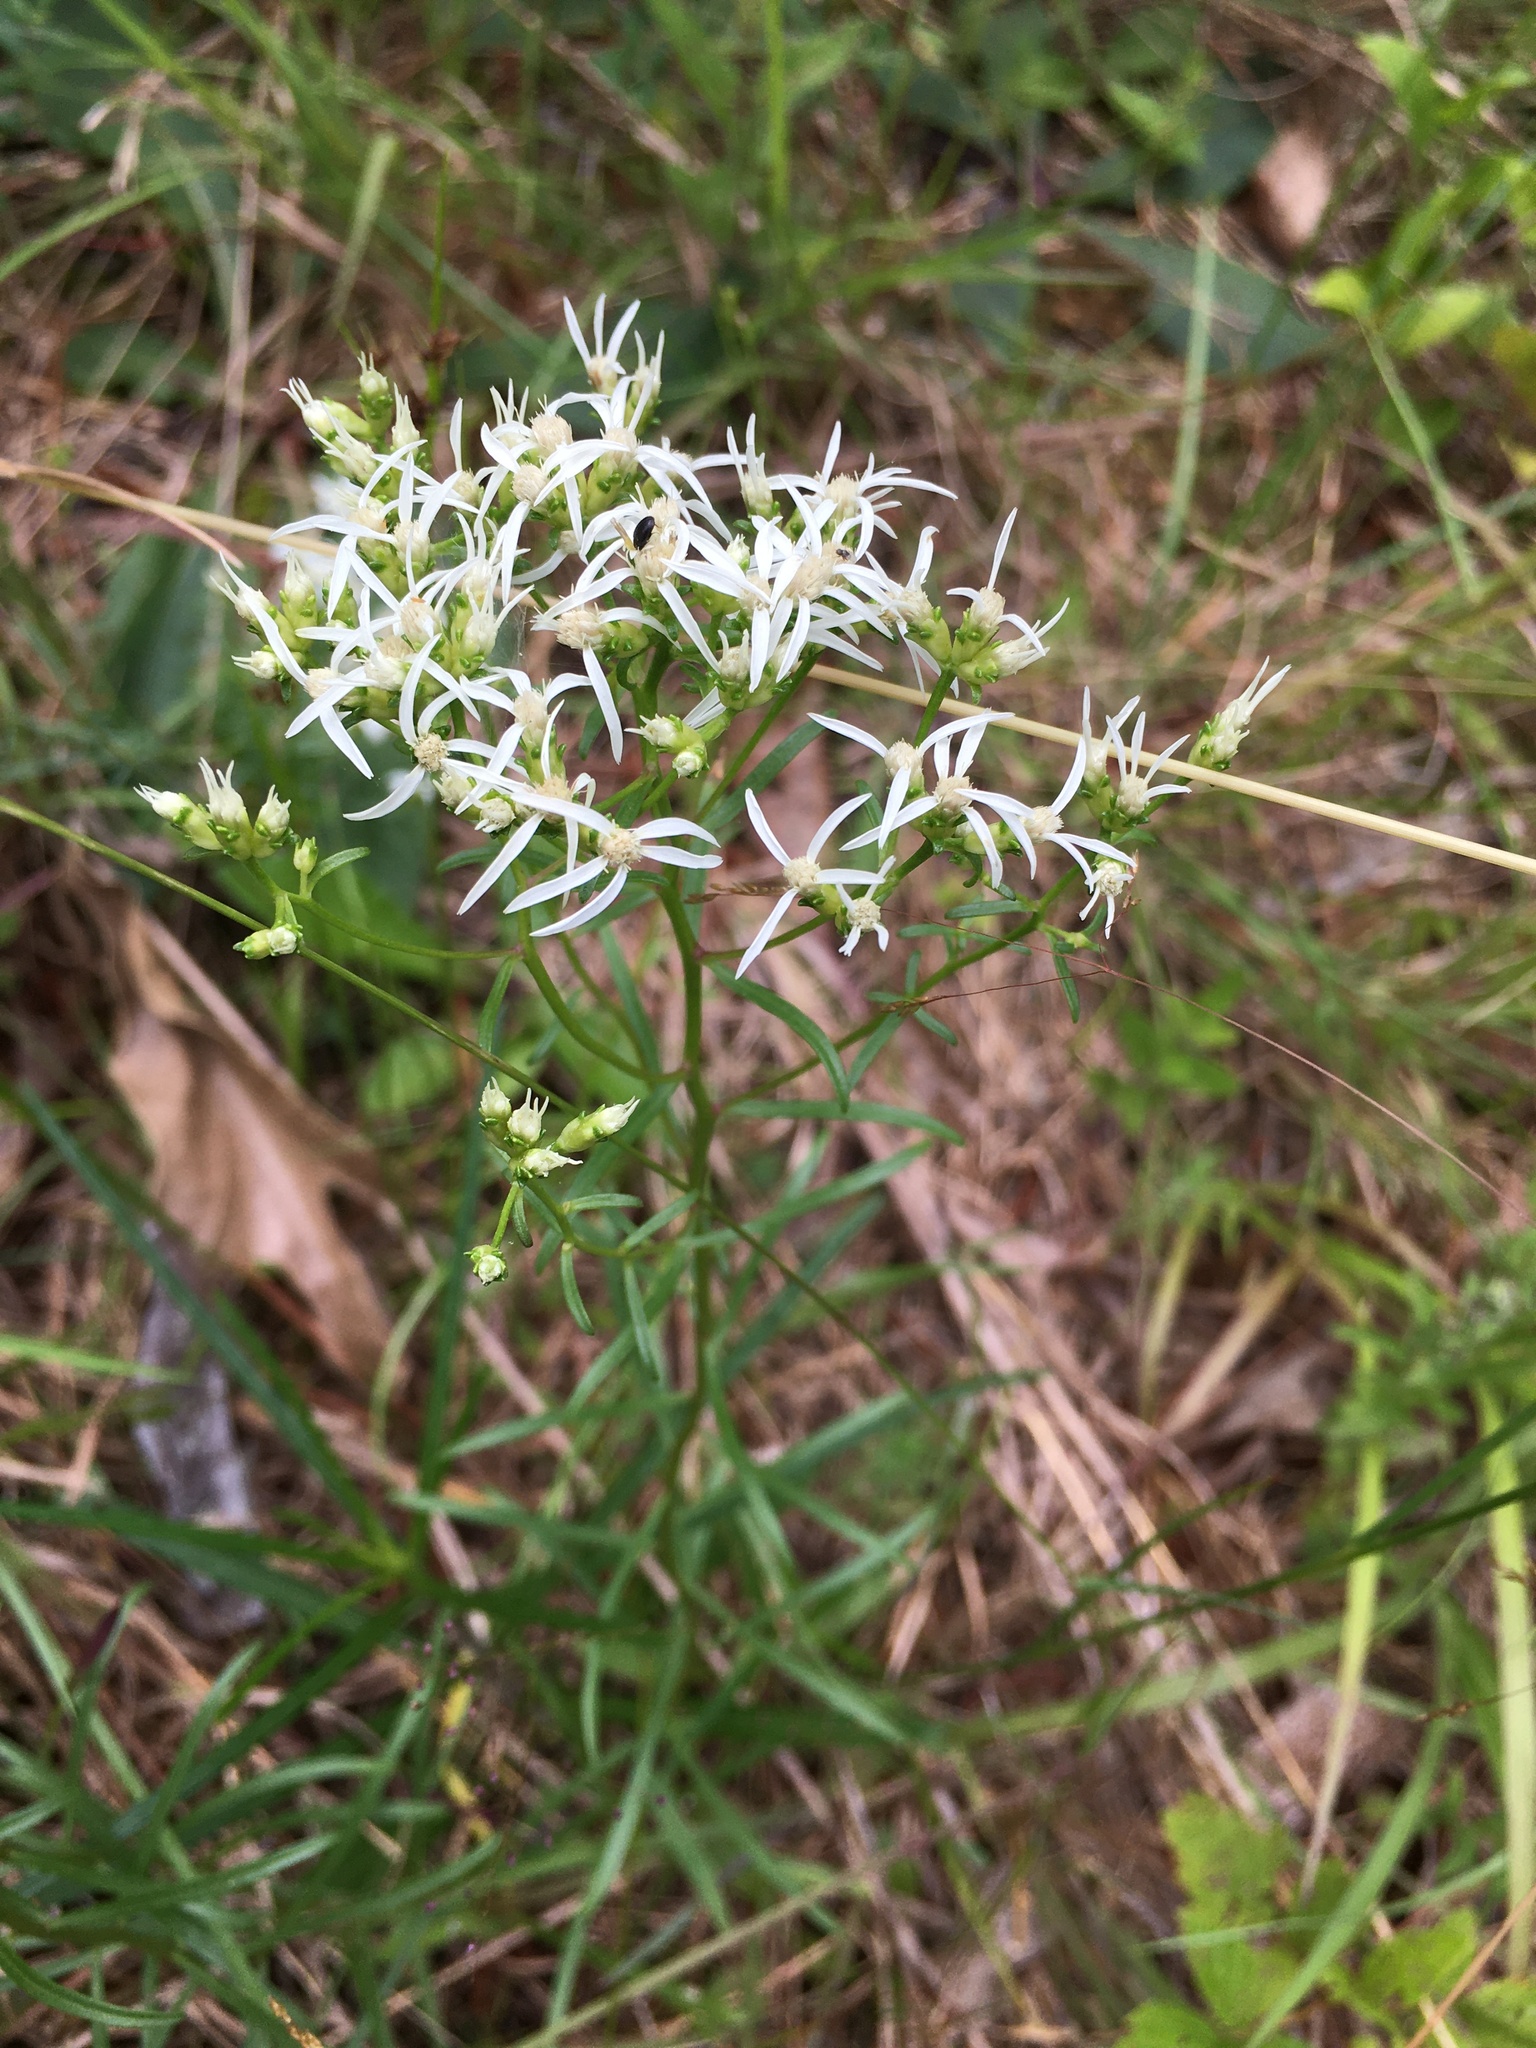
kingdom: Plantae
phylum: Tracheophyta
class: Magnoliopsida
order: Asterales
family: Asteraceae
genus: Sericocarpus
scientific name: Sericocarpus linifolius
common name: Narrow-leaf aster
